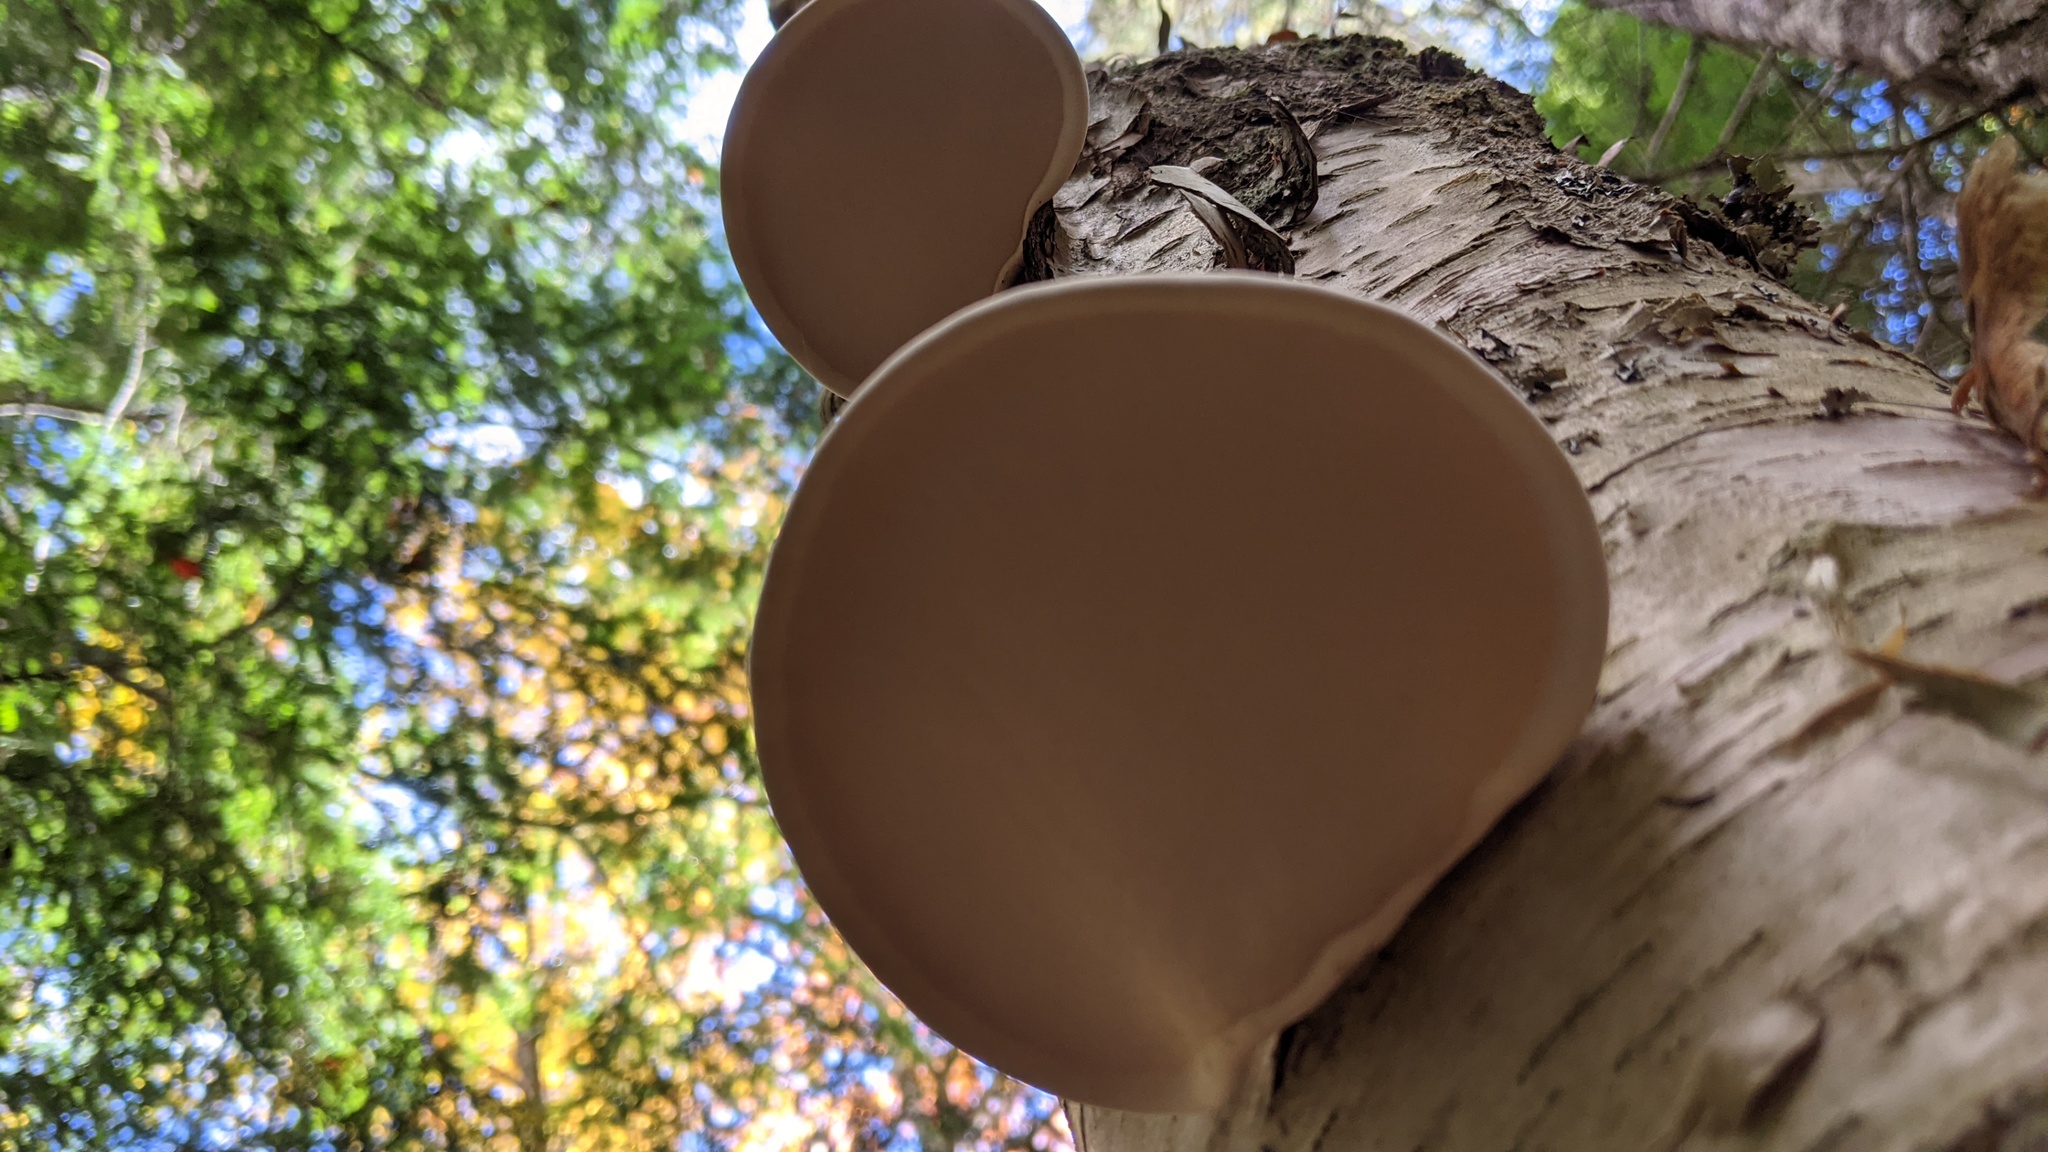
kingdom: Fungi
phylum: Basidiomycota
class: Agaricomycetes
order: Polyporales
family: Fomitopsidaceae
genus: Fomitopsis
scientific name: Fomitopsis betulina
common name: Birch polypore
